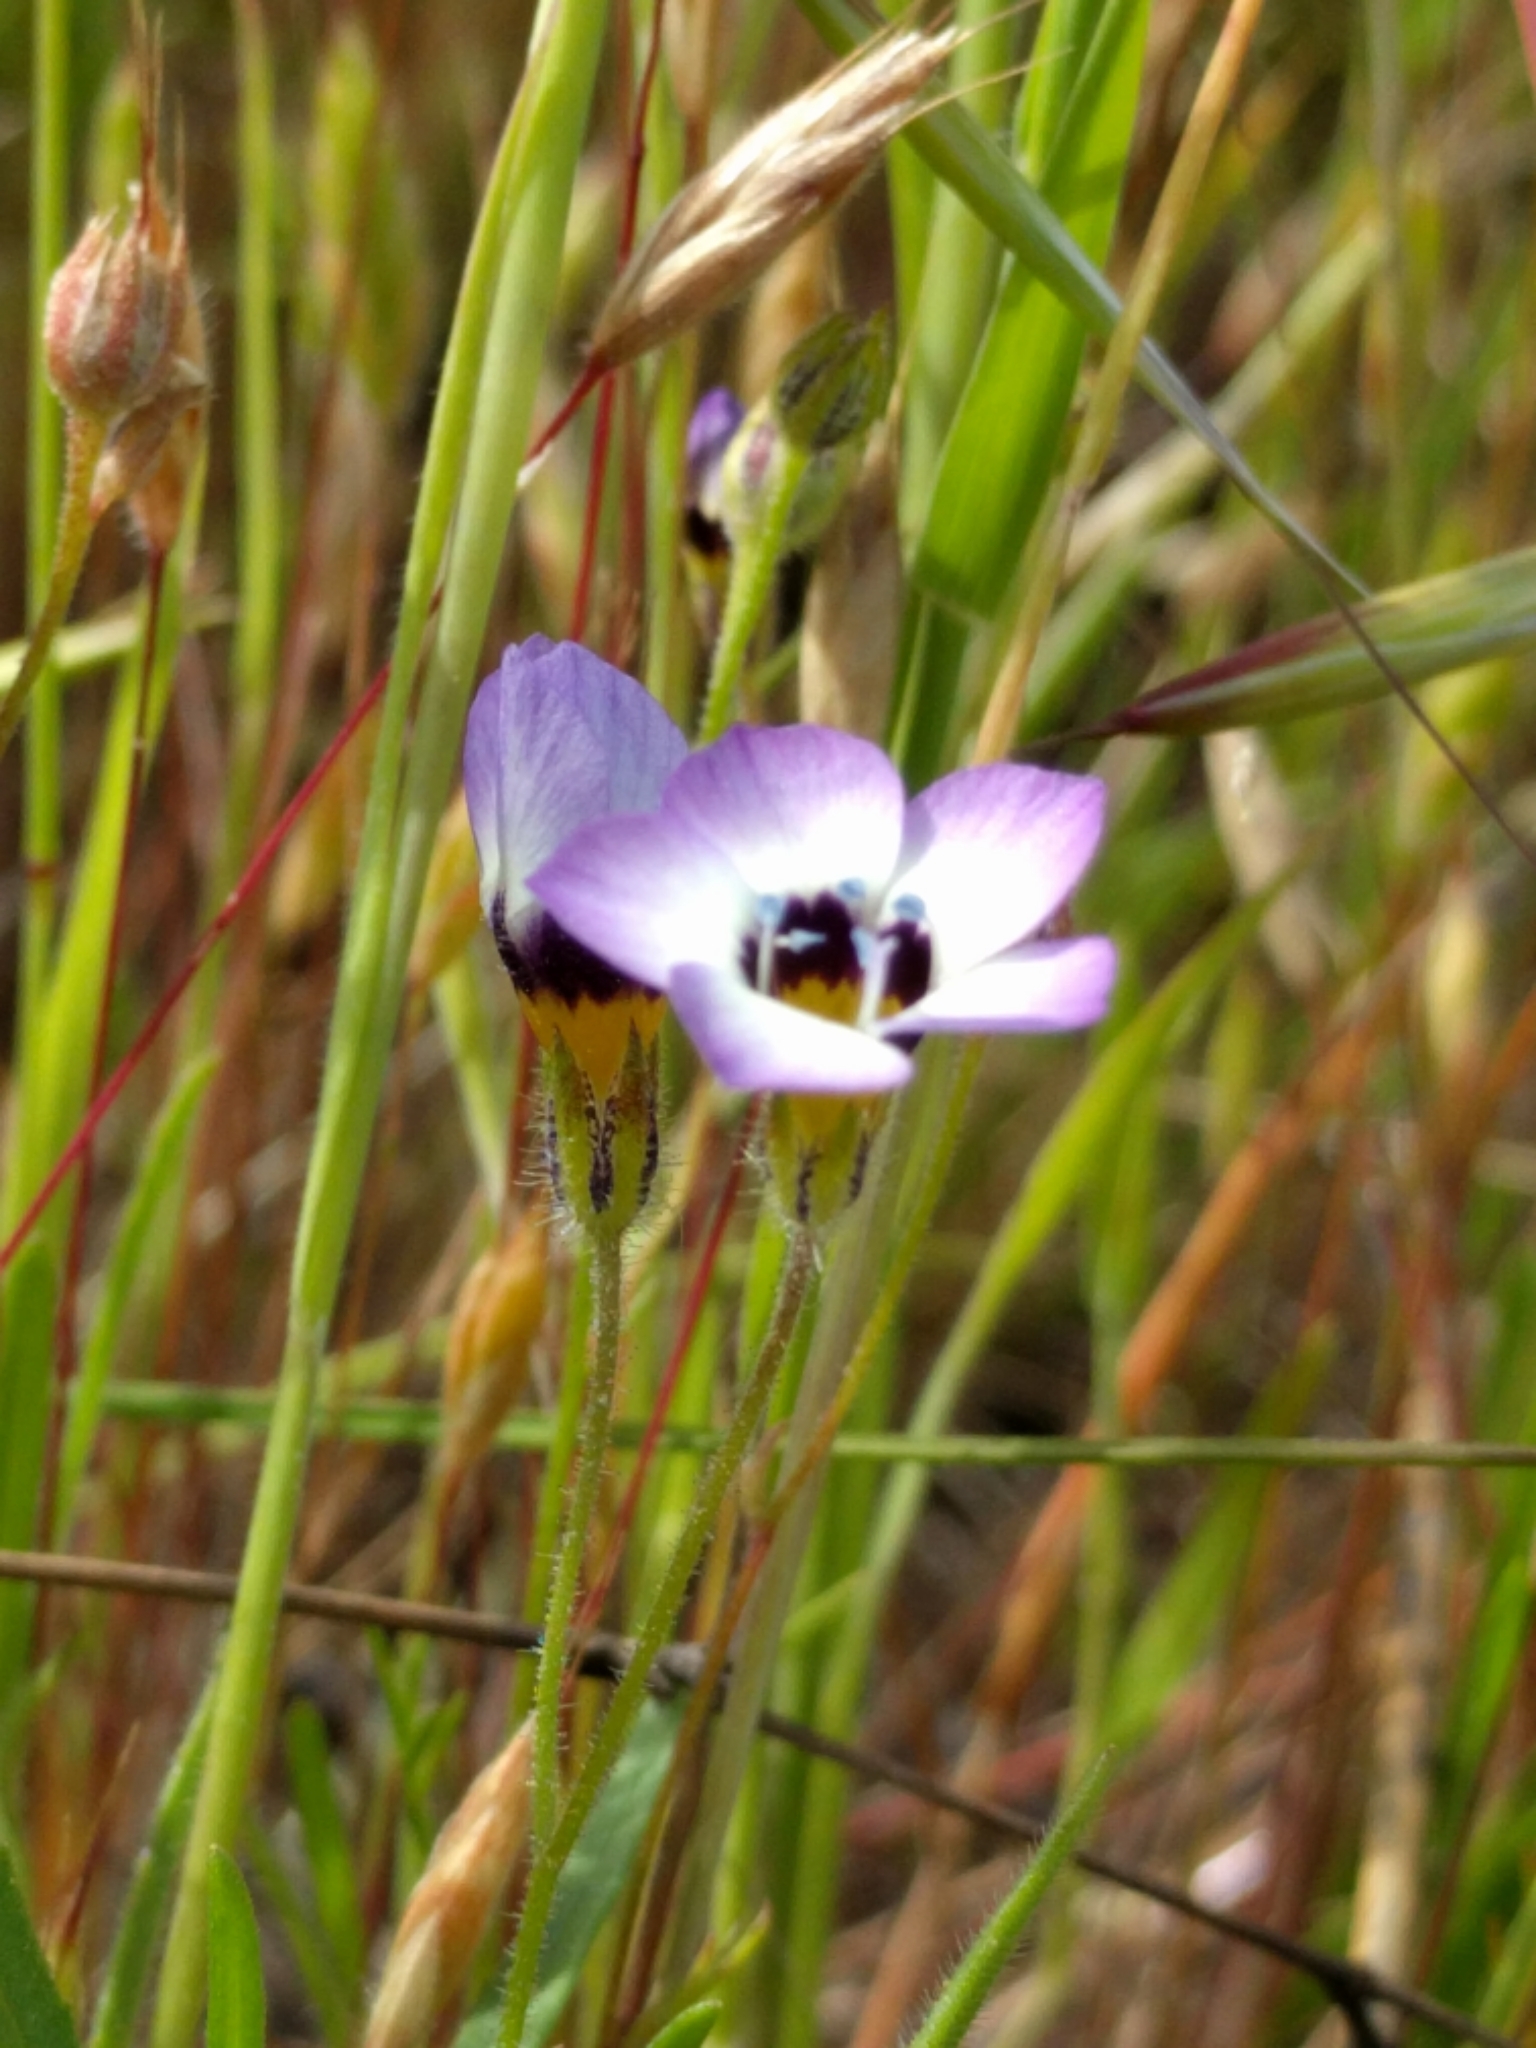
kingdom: Plantae
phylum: Tracheophyta
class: Magnoliopsida
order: Ericales
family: Polemoniaceae
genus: Gilia
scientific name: Gilia tricolor
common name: Bird's-eyes
